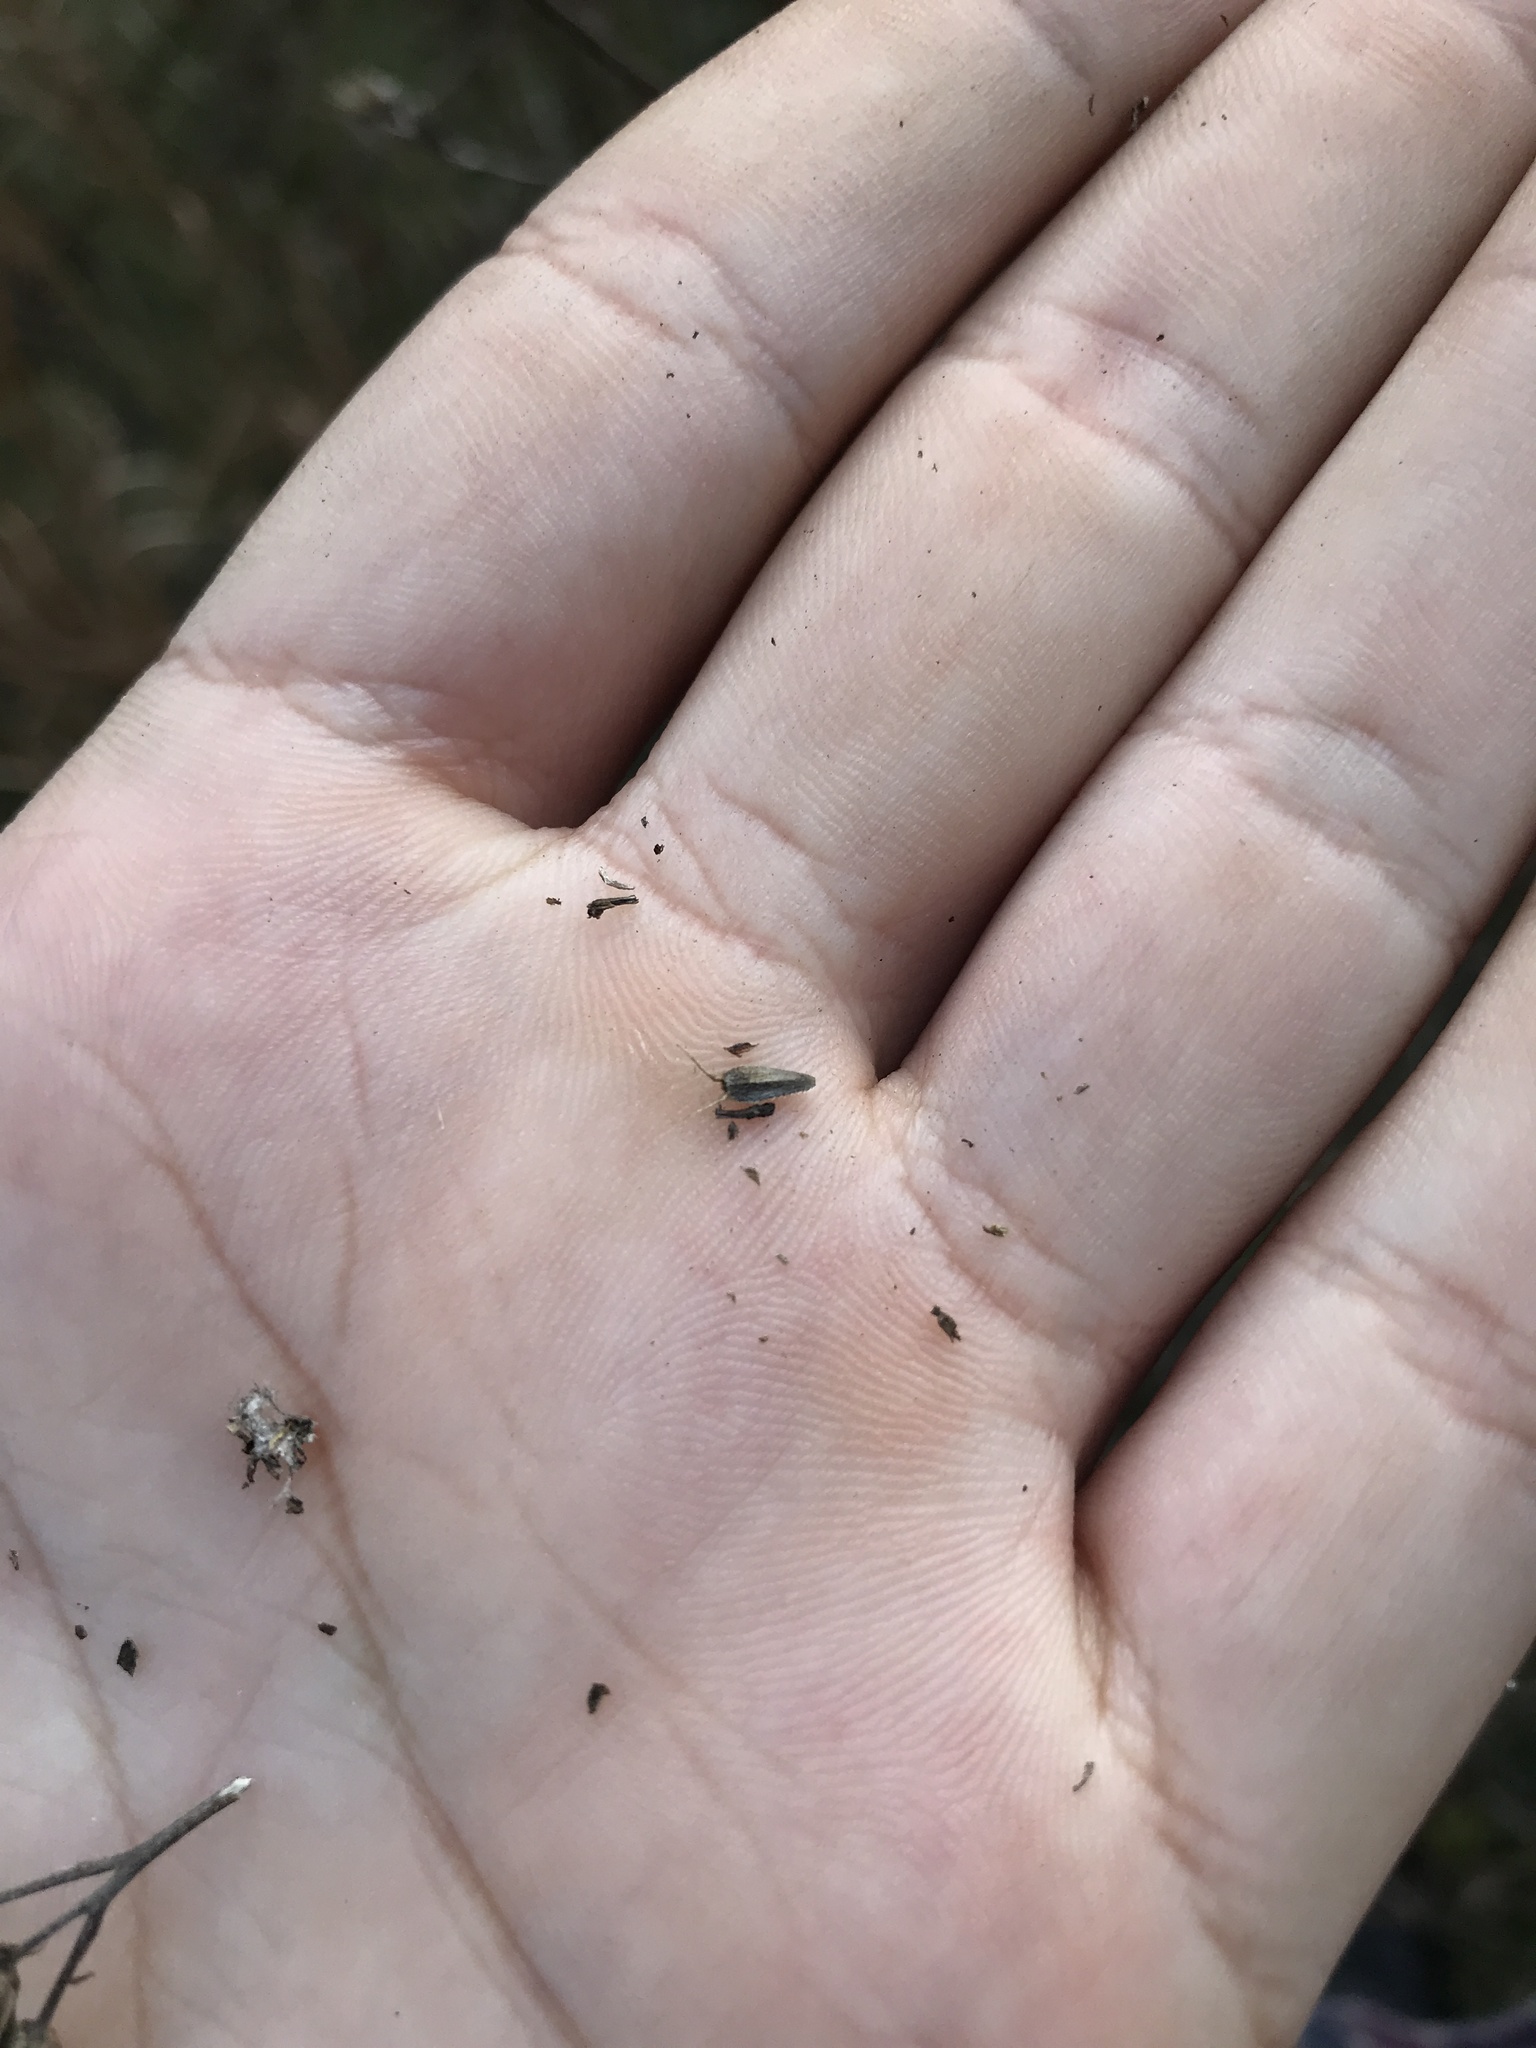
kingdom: Plantae
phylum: Tracheophyta
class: Magnoliopsida
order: Asterales
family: Asteraceae
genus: Verbesina
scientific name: Verbesina occidentalis
